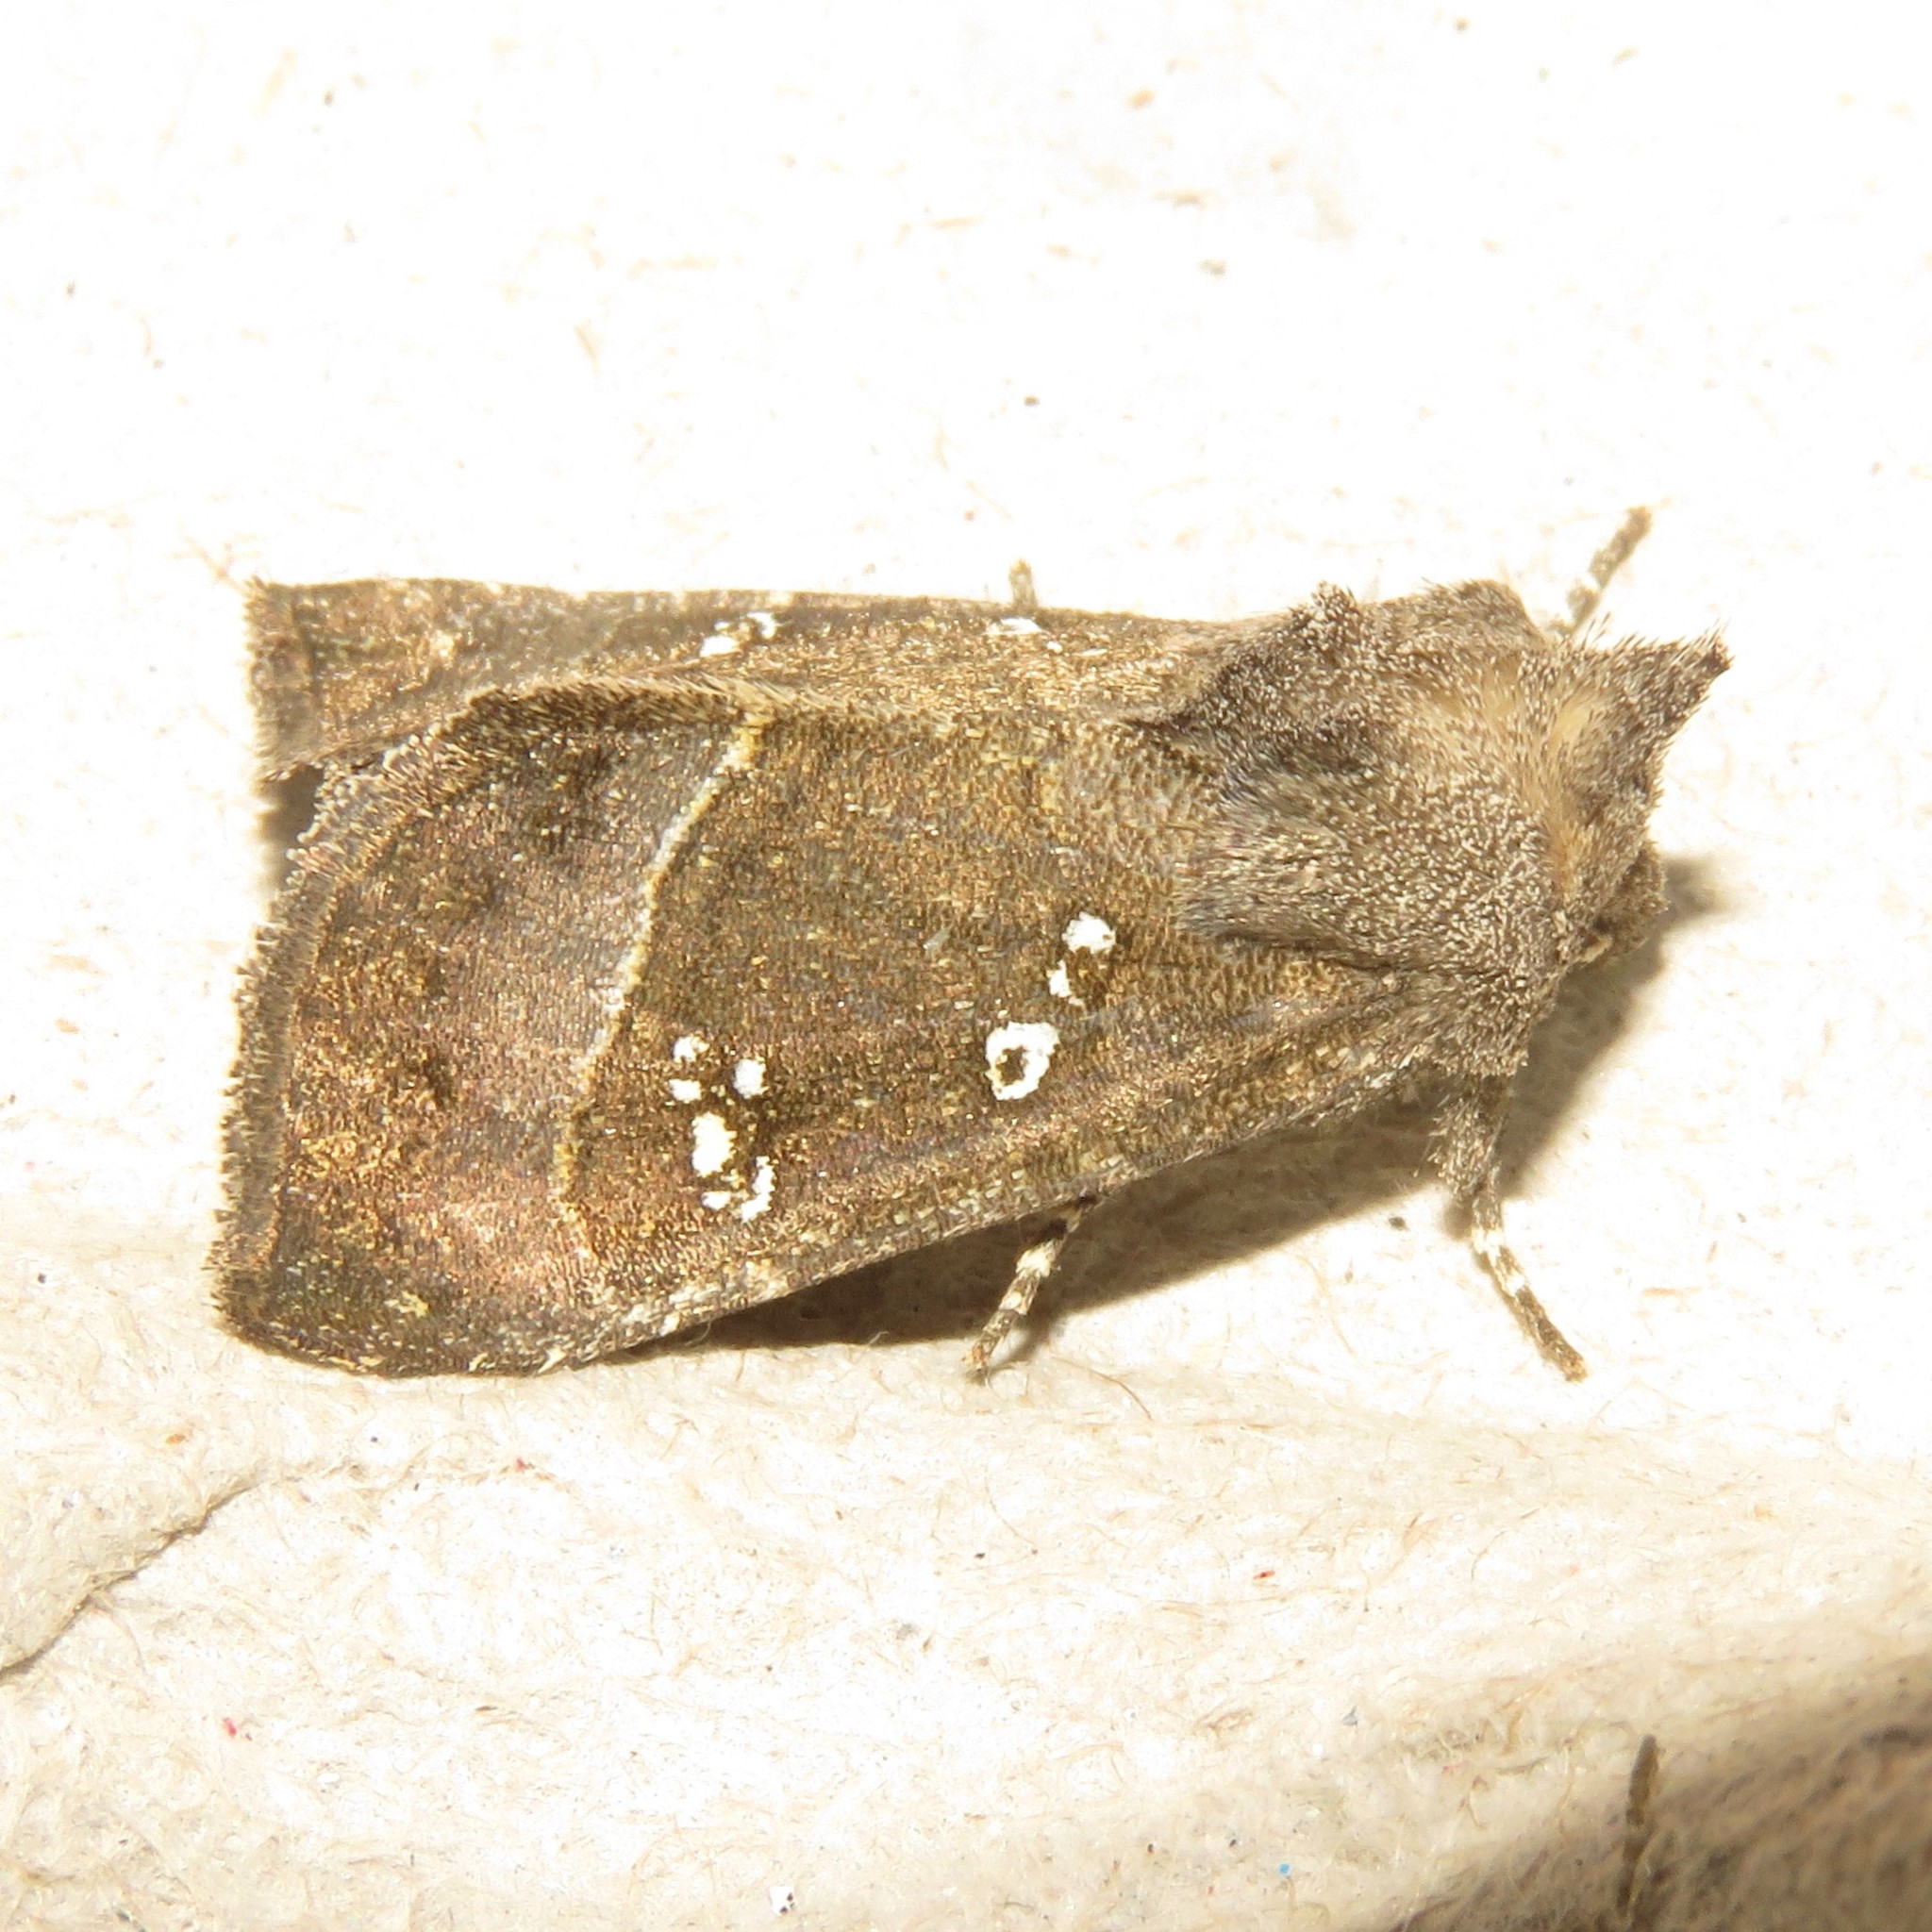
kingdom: Animalia
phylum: Arthropoda
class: Insecta
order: Lepidoptera
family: Noctuidae
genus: Papaipema
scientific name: Papaipema nebris
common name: Stalk borer
